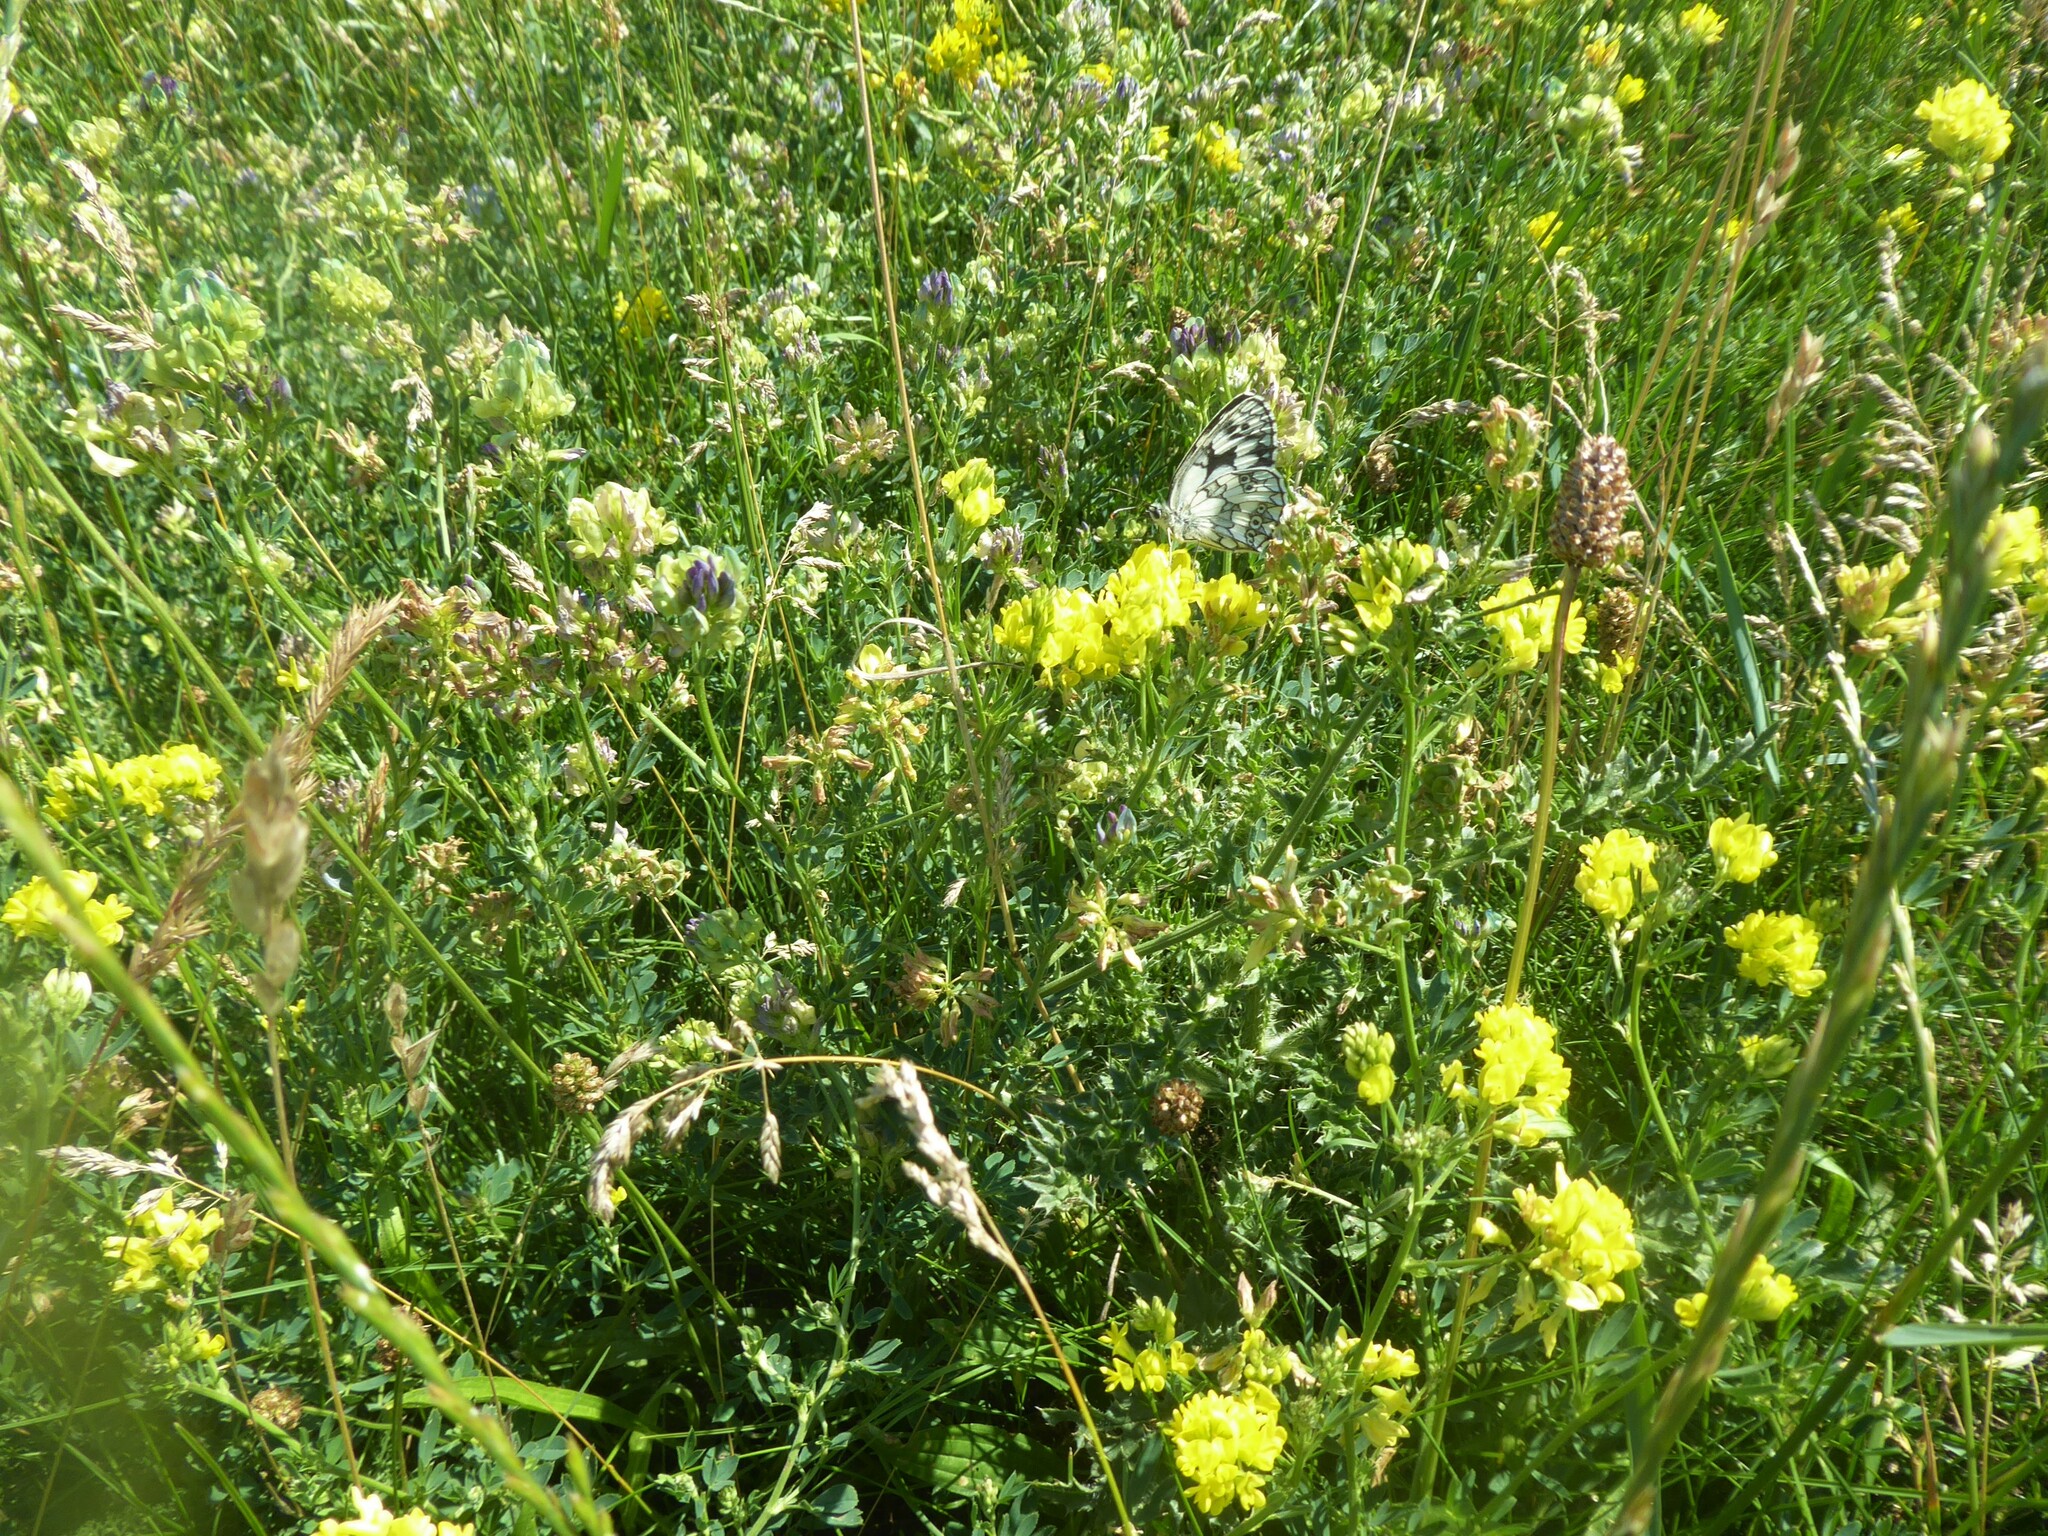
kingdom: Plantae
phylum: Tracheophyta
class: Magnoliopsida
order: Fabales
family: Fabaceae
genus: Medicago
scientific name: Medicago varia
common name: Sand lucerne
